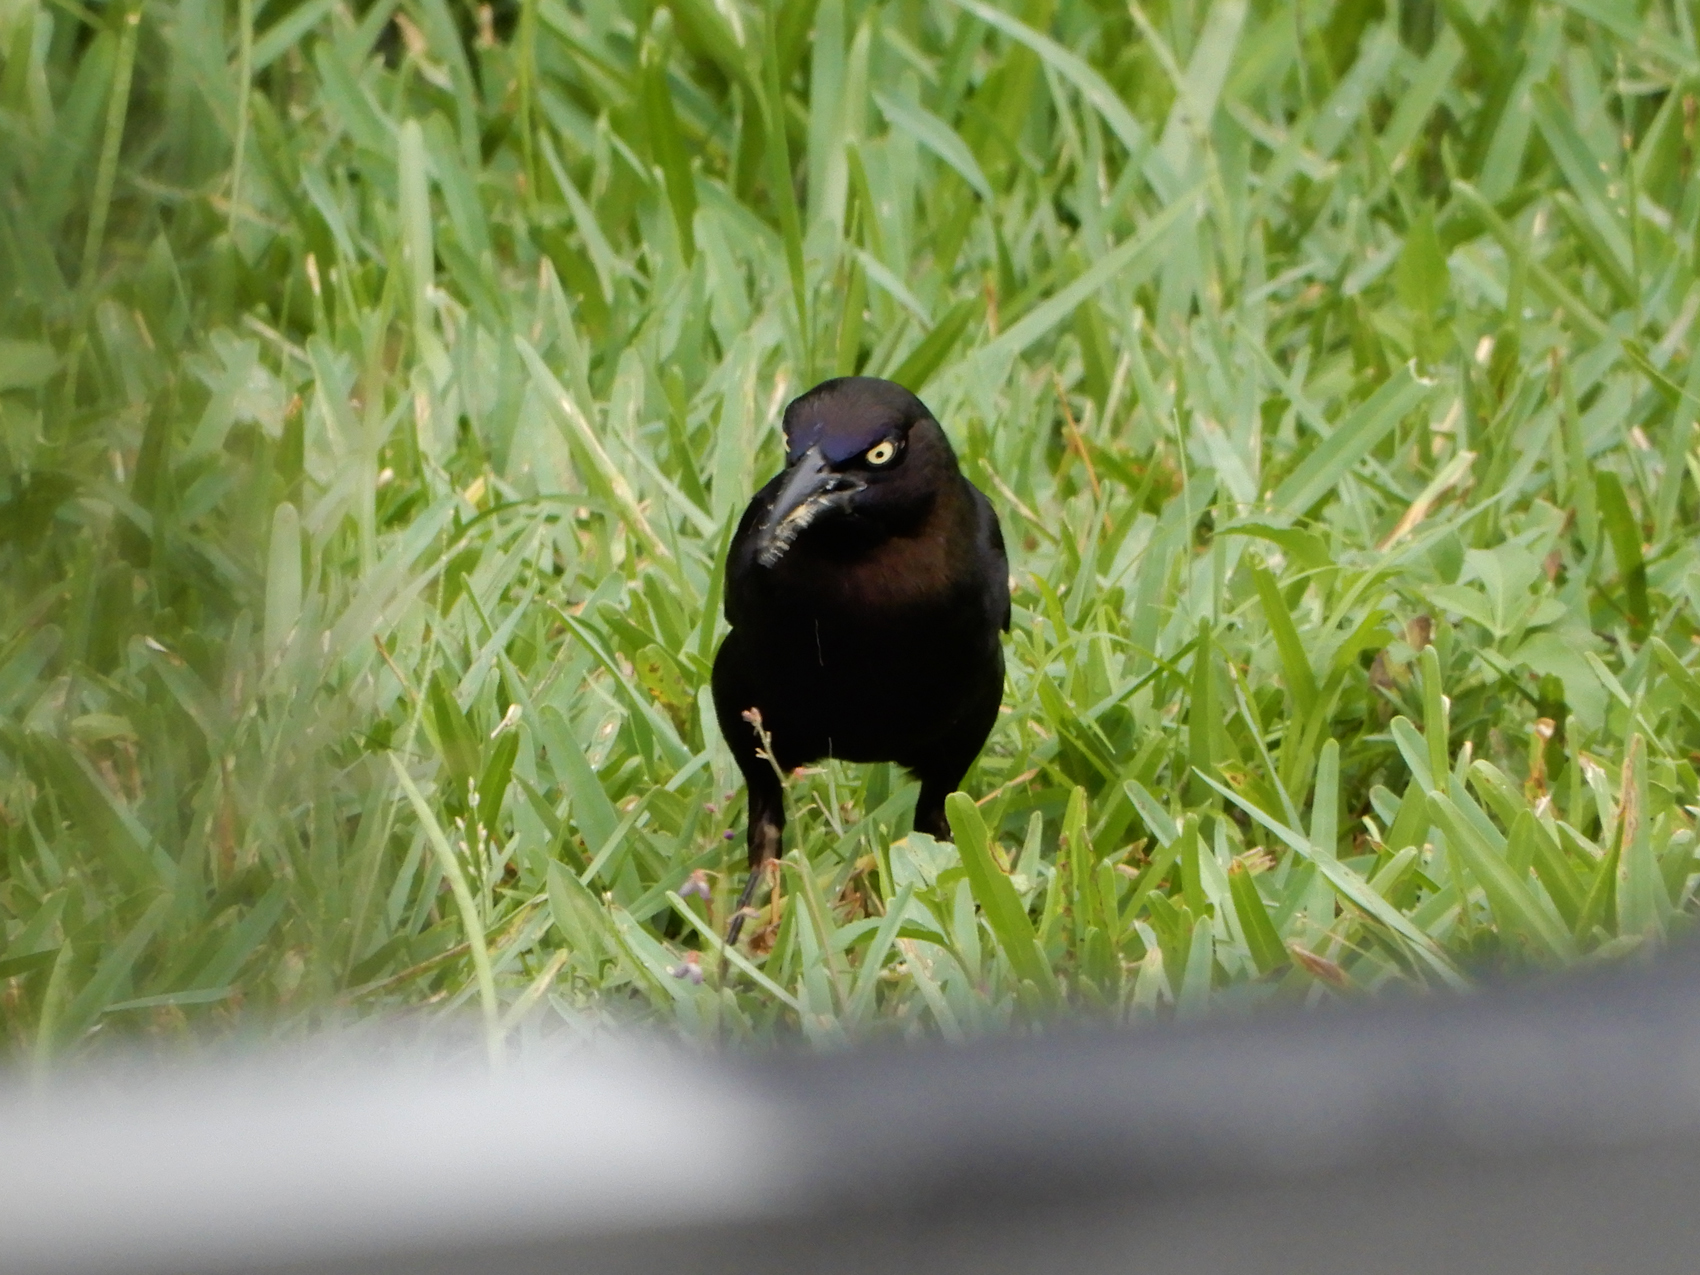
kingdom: Animalia
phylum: Chordata
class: Aves
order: Passeriformes
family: Icteridae
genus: Quiscalus
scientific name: Quiscalus quiscula
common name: Common grackle
